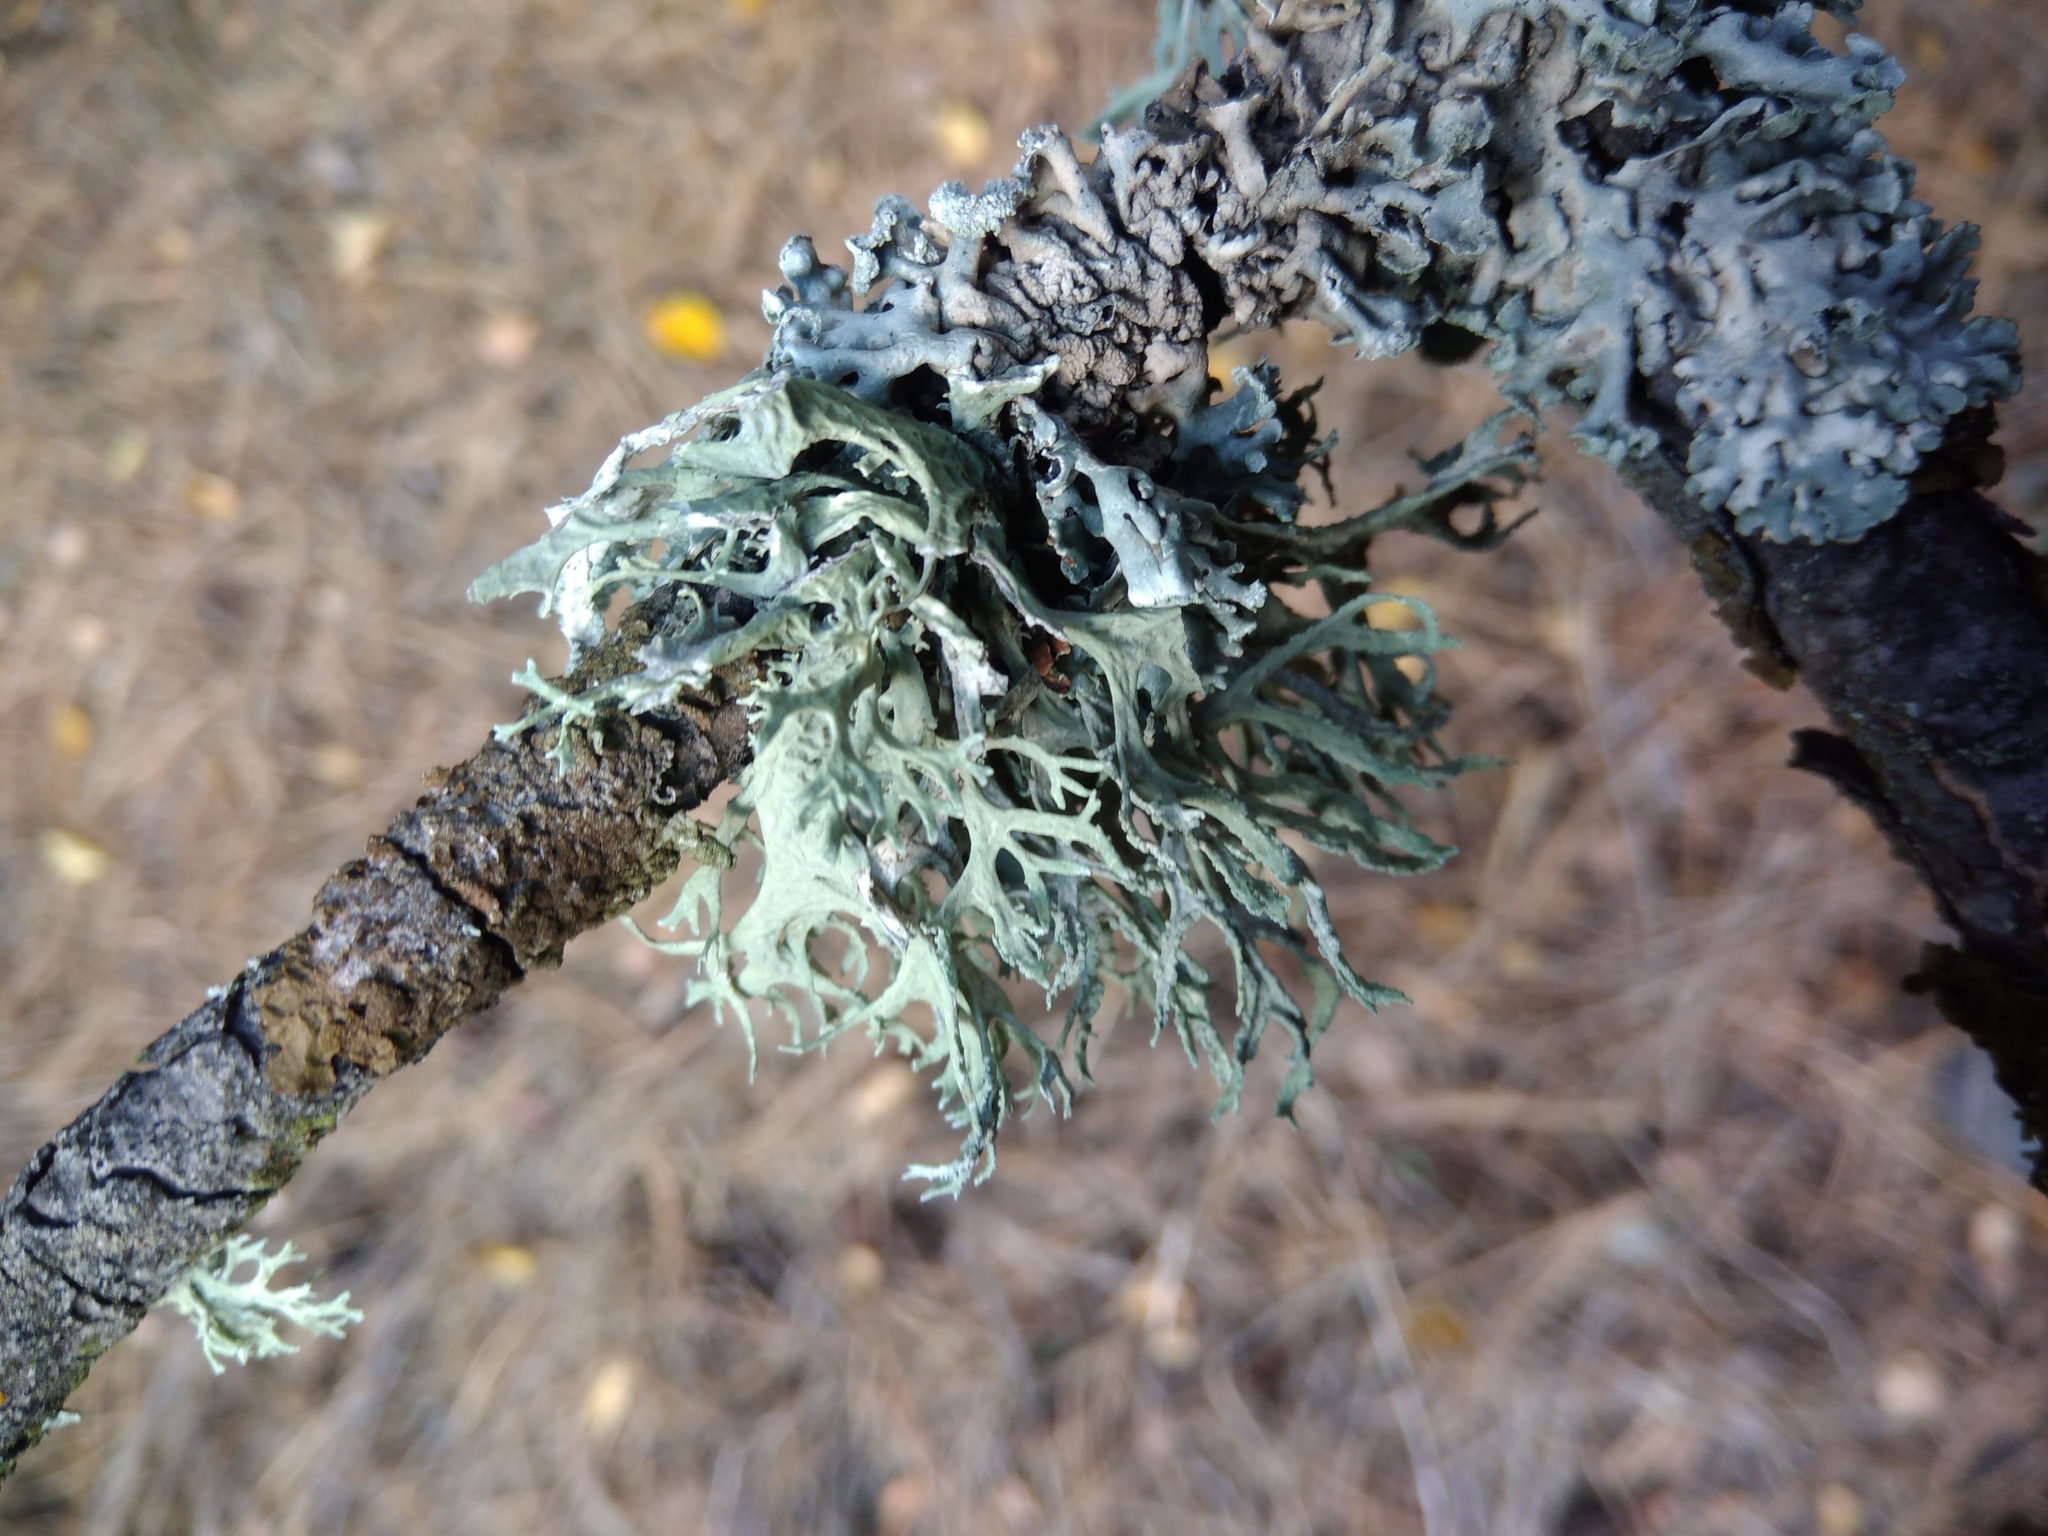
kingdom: Fungi
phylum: Ascomycota
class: Lecanoromycetes
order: Lecanorales
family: Parmeliaceae
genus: Evernia
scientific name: Evernia prunastri
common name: Oak moss
